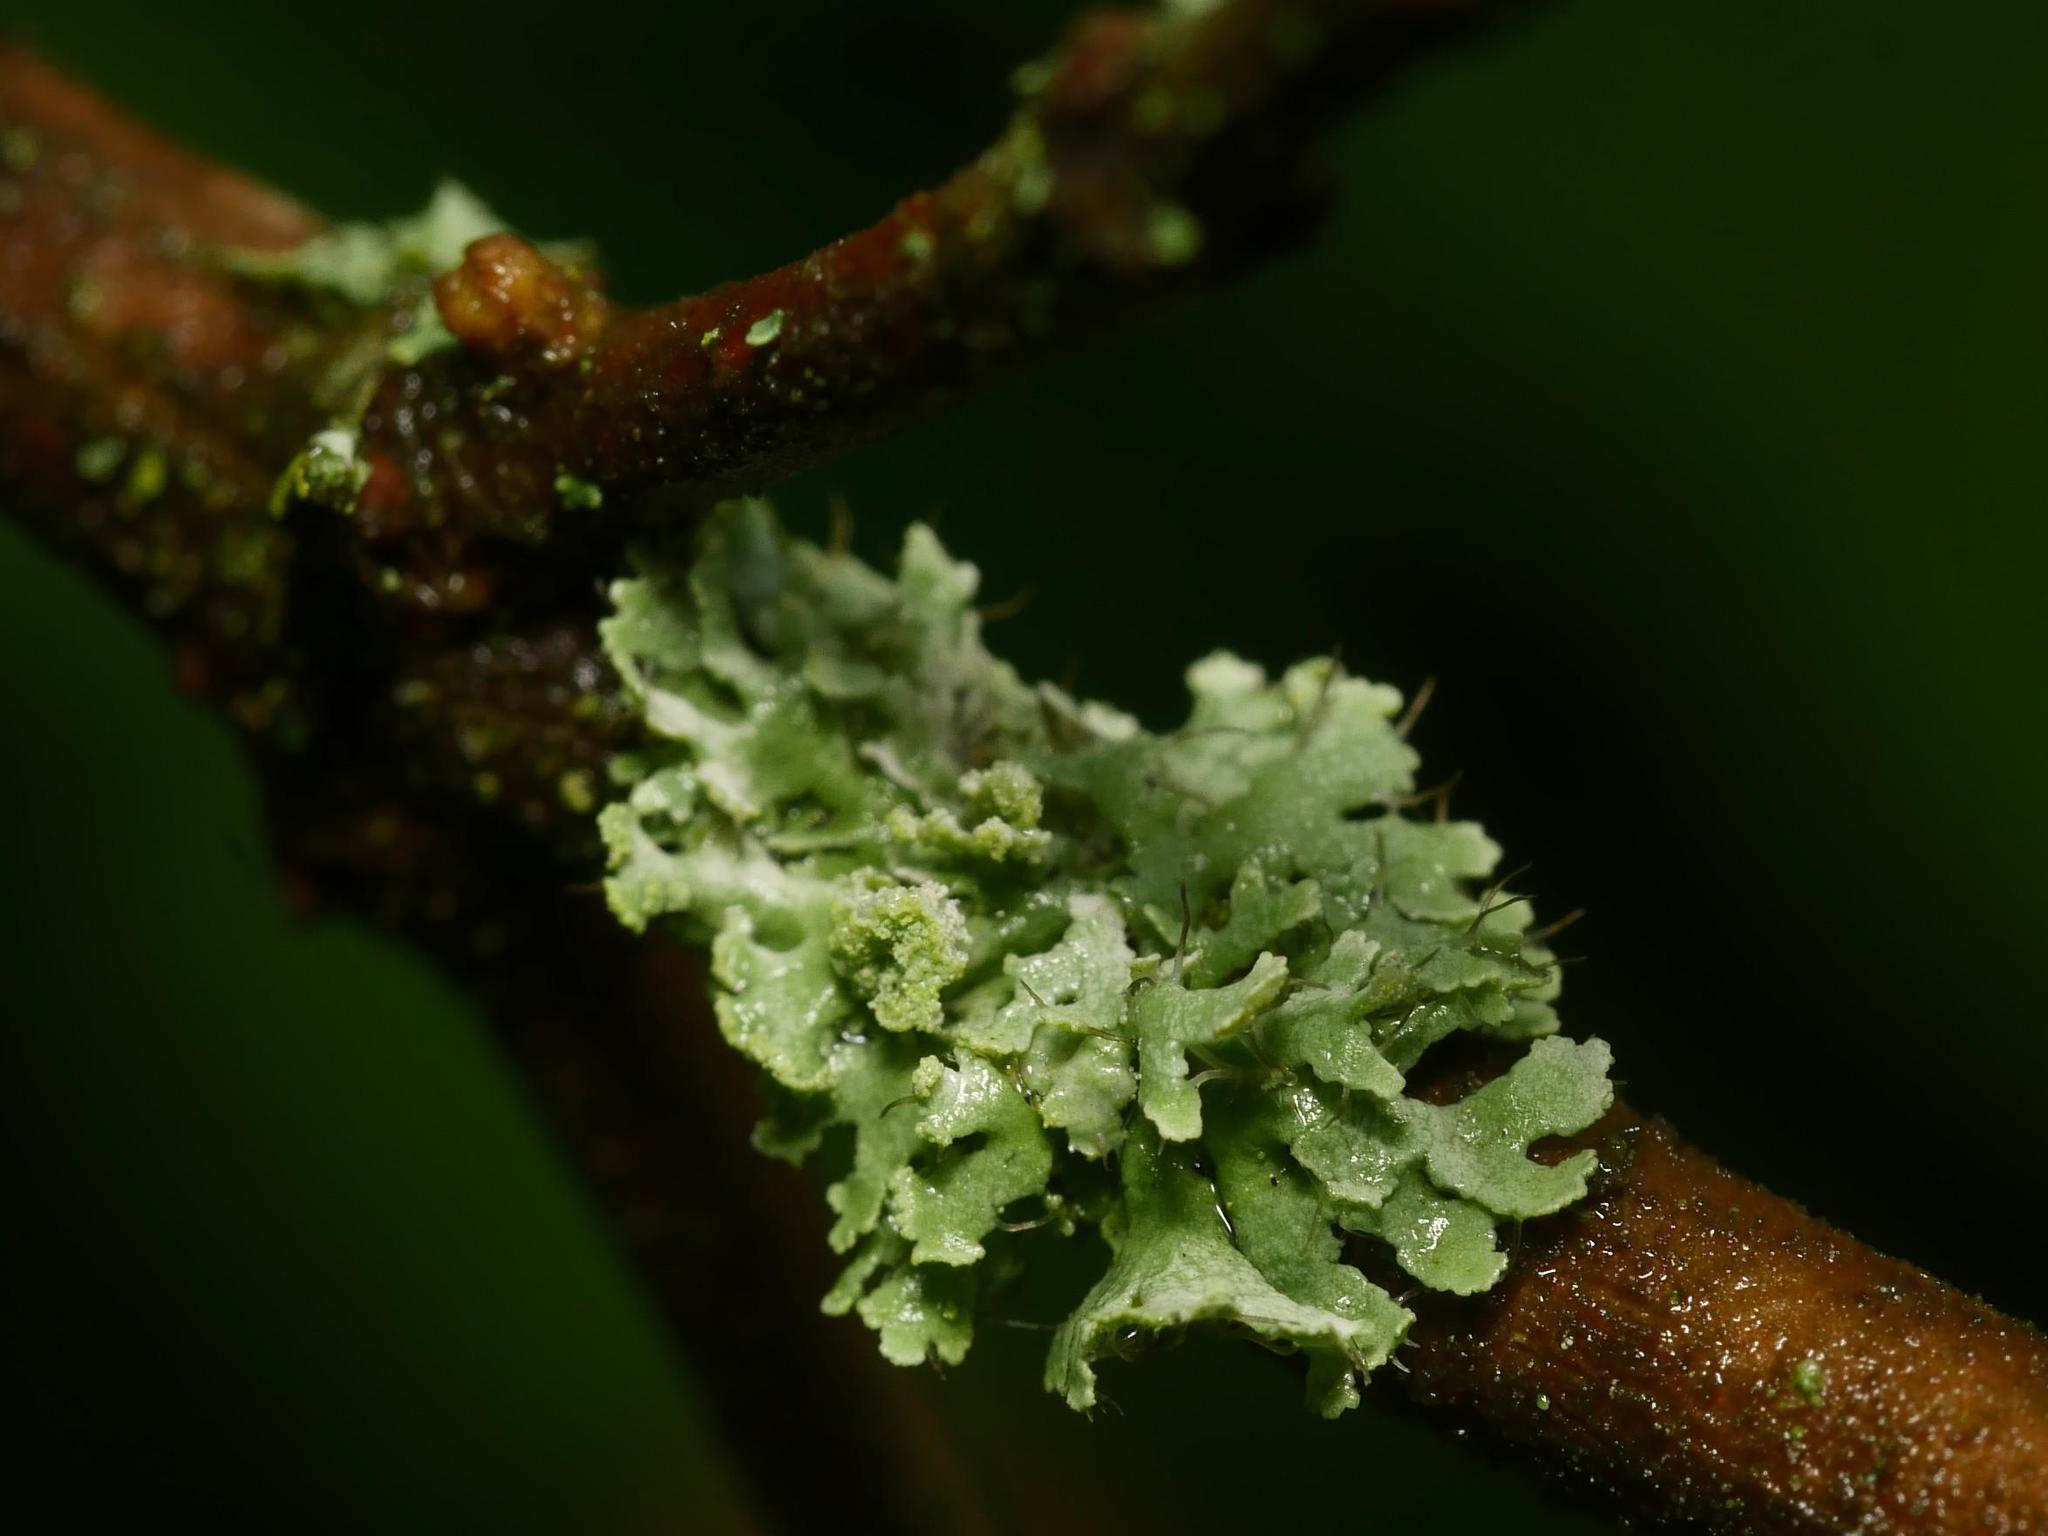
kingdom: Fungi
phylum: Ascomycota
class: Lecanoromycetes
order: Caliciales
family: Physciaceae
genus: Physcia
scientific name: Physcia tenella
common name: Fringed rosette lichen
